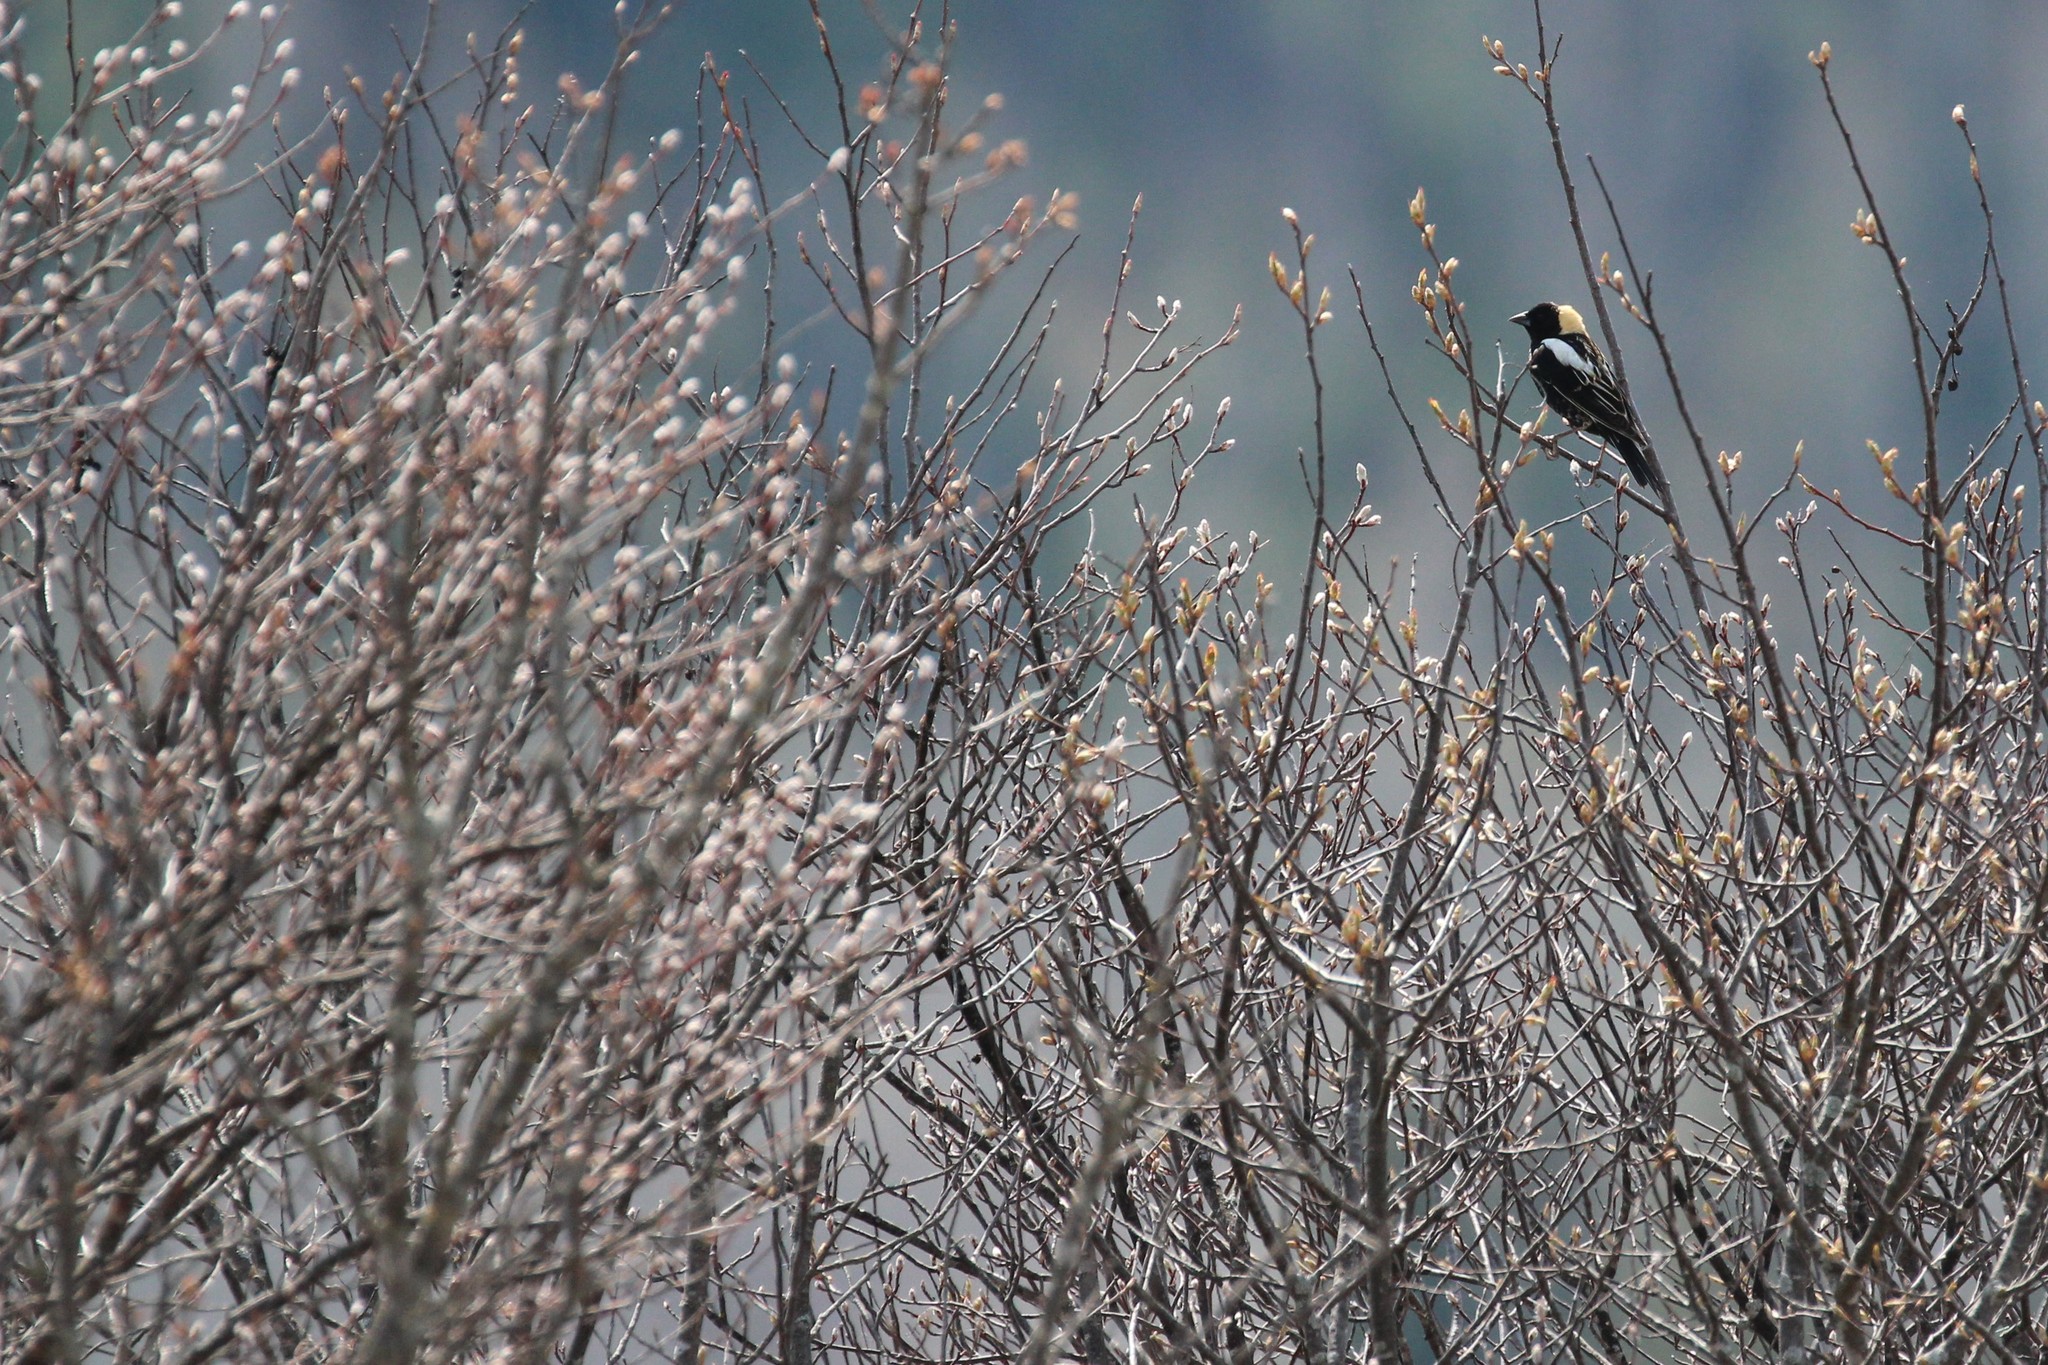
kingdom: Animalia
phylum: Chordata
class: Aves
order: Passeriformes
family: Icteridae
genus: Dolichonyx
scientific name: Dolichonyx oryzivorus
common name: Bobolink
